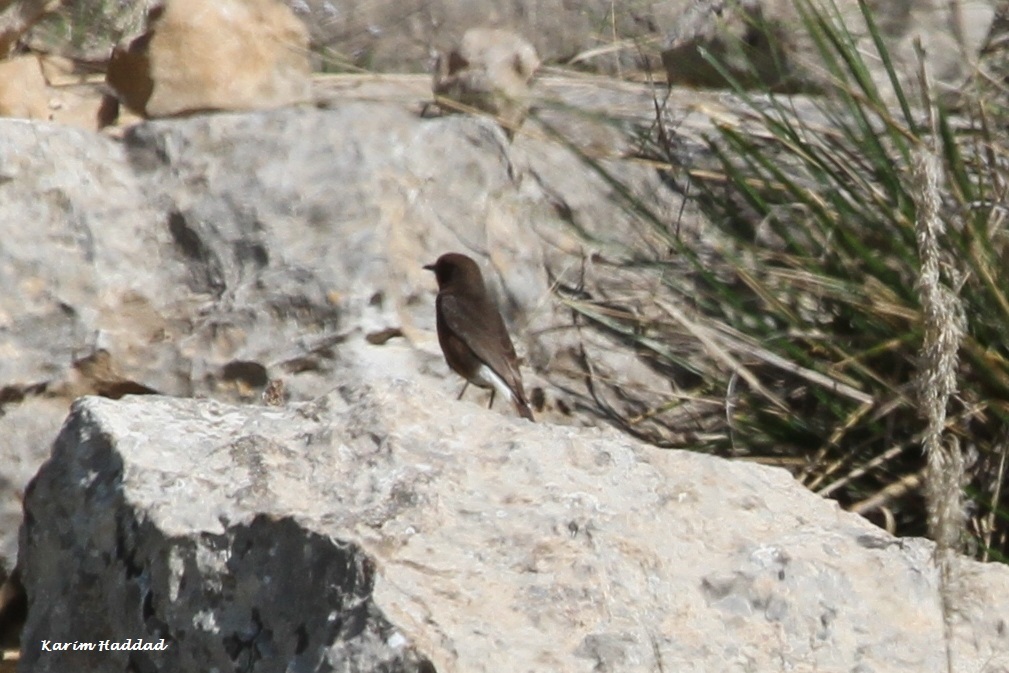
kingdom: Animalia
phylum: Chordata
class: Aves
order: Passeriformes
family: Muscicapidae
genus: Oenanthe
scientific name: Oenanthe leucura
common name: Black wheatear
